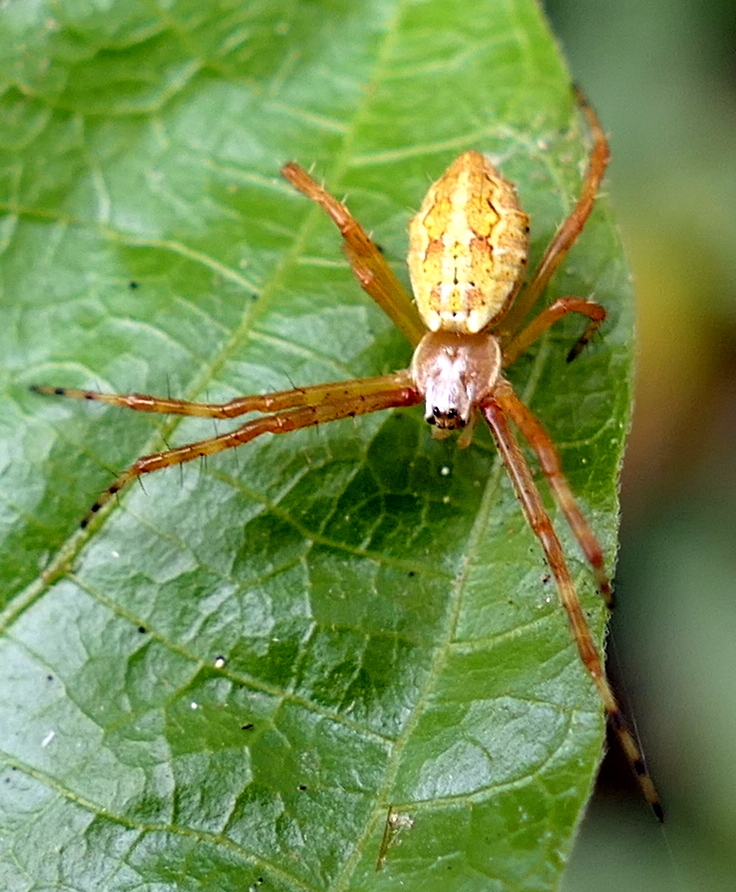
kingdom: Animalia
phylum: Arthropoda
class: Arachnida
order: Araneae
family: Araneidae
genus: Argiope
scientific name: Argiope argentata
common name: Orb weavers
